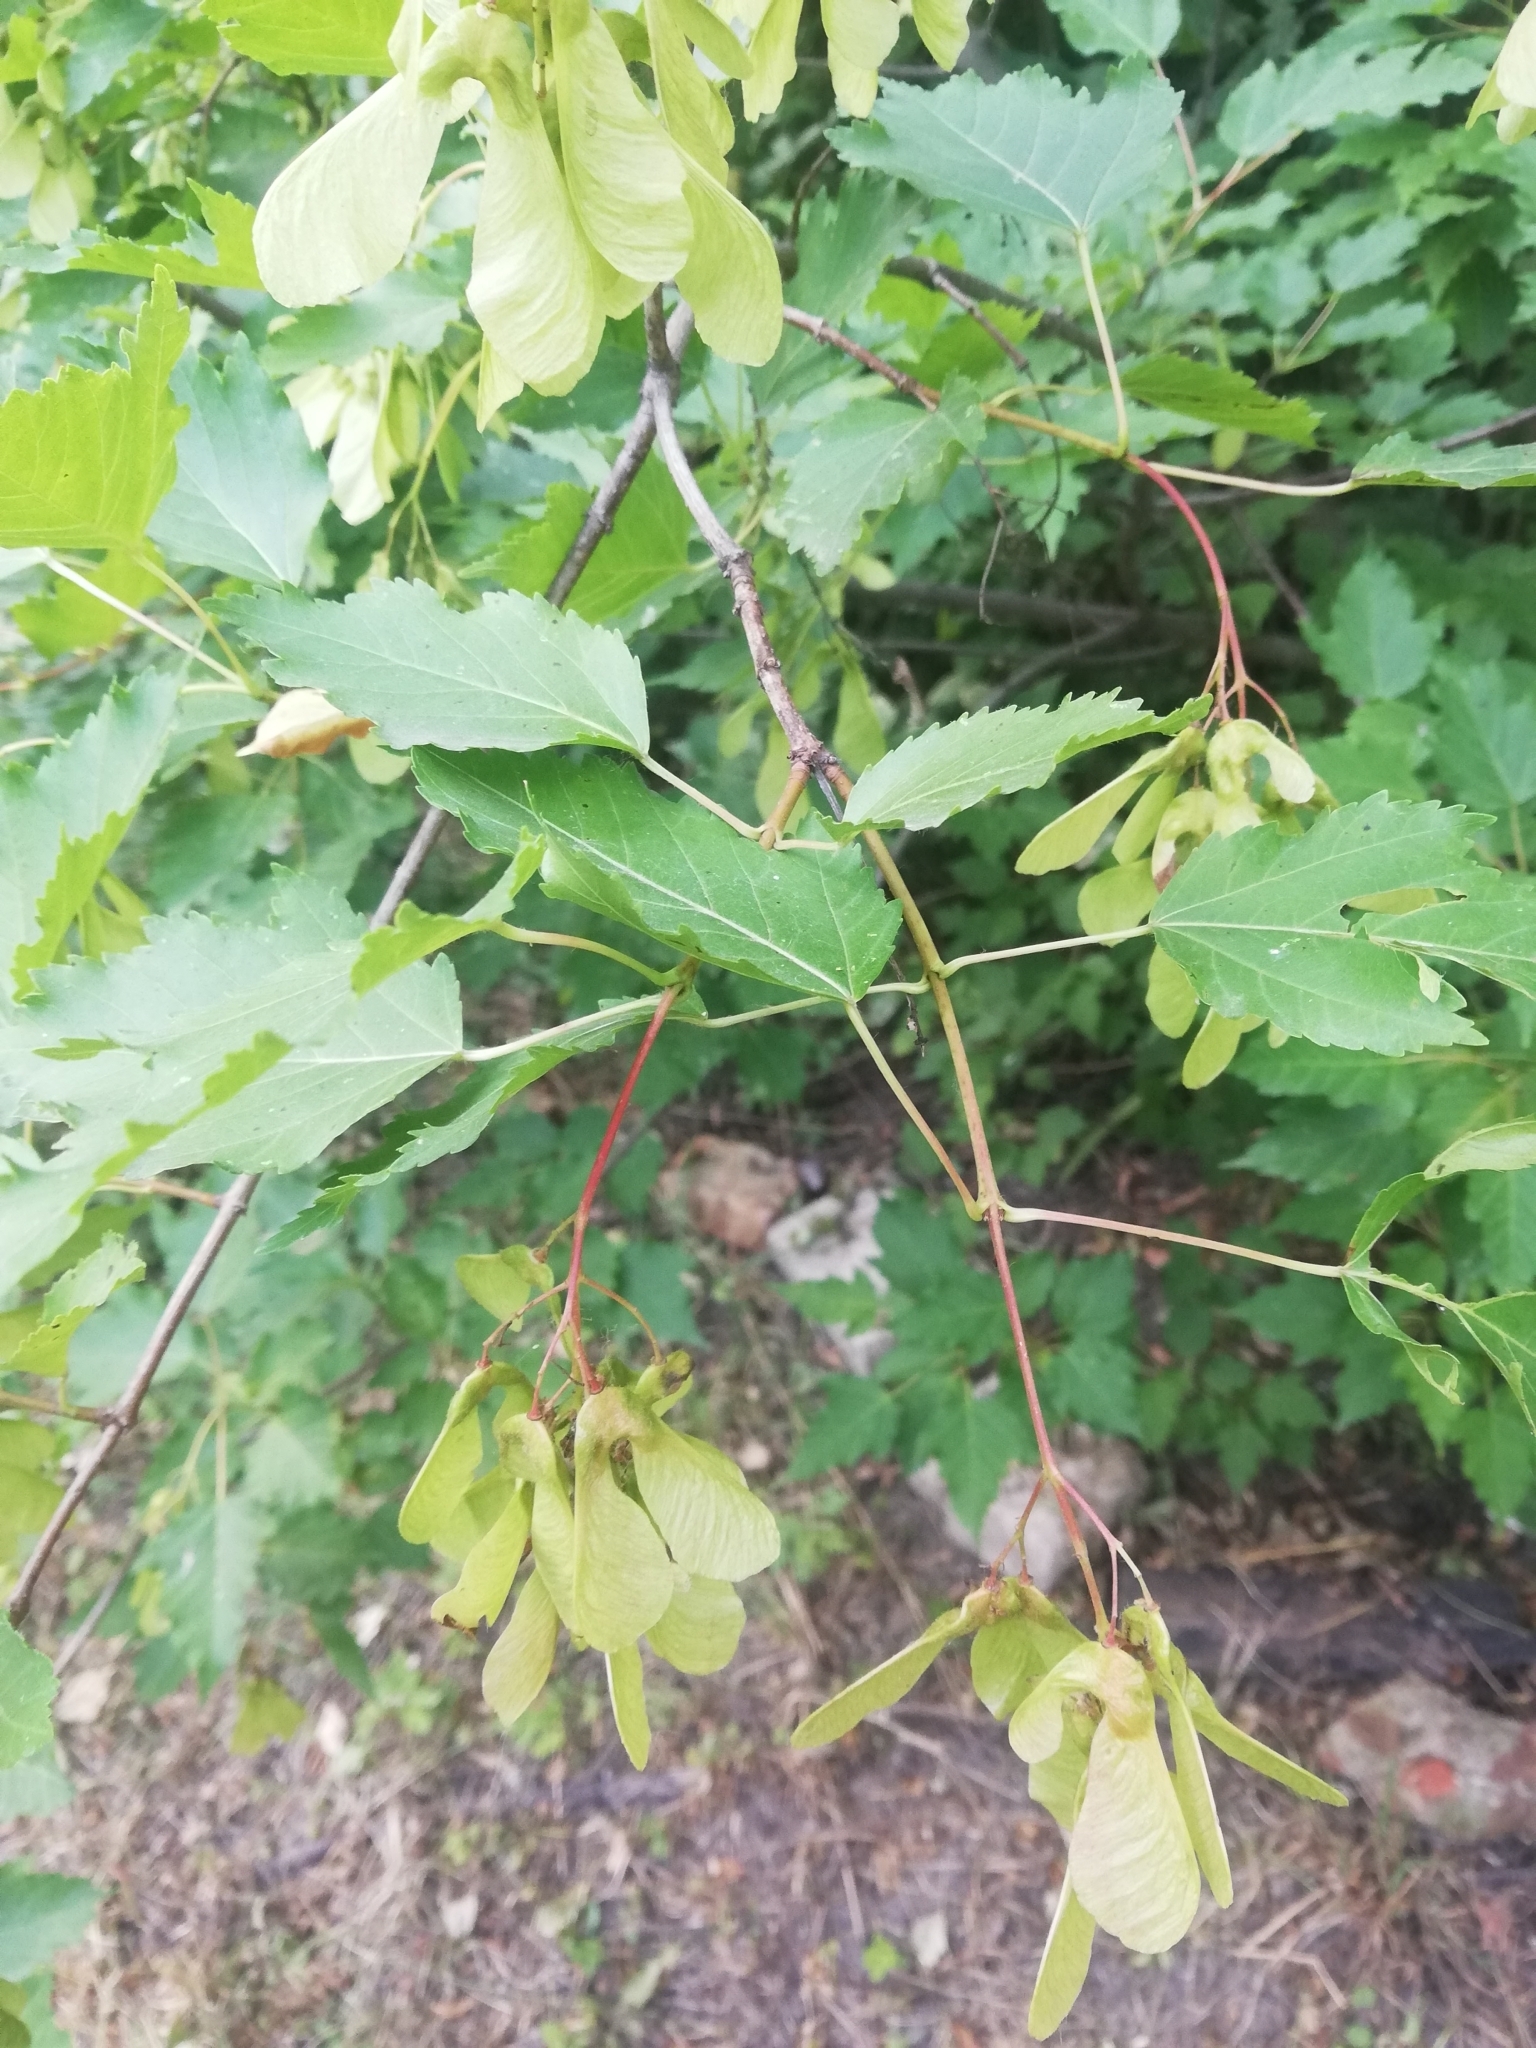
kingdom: Plantae
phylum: Tracheophyta
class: Magnoliopsida
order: Sapindales
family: Sapindaceae
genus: Acer
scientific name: Acer tataricum
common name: Tartar maple
